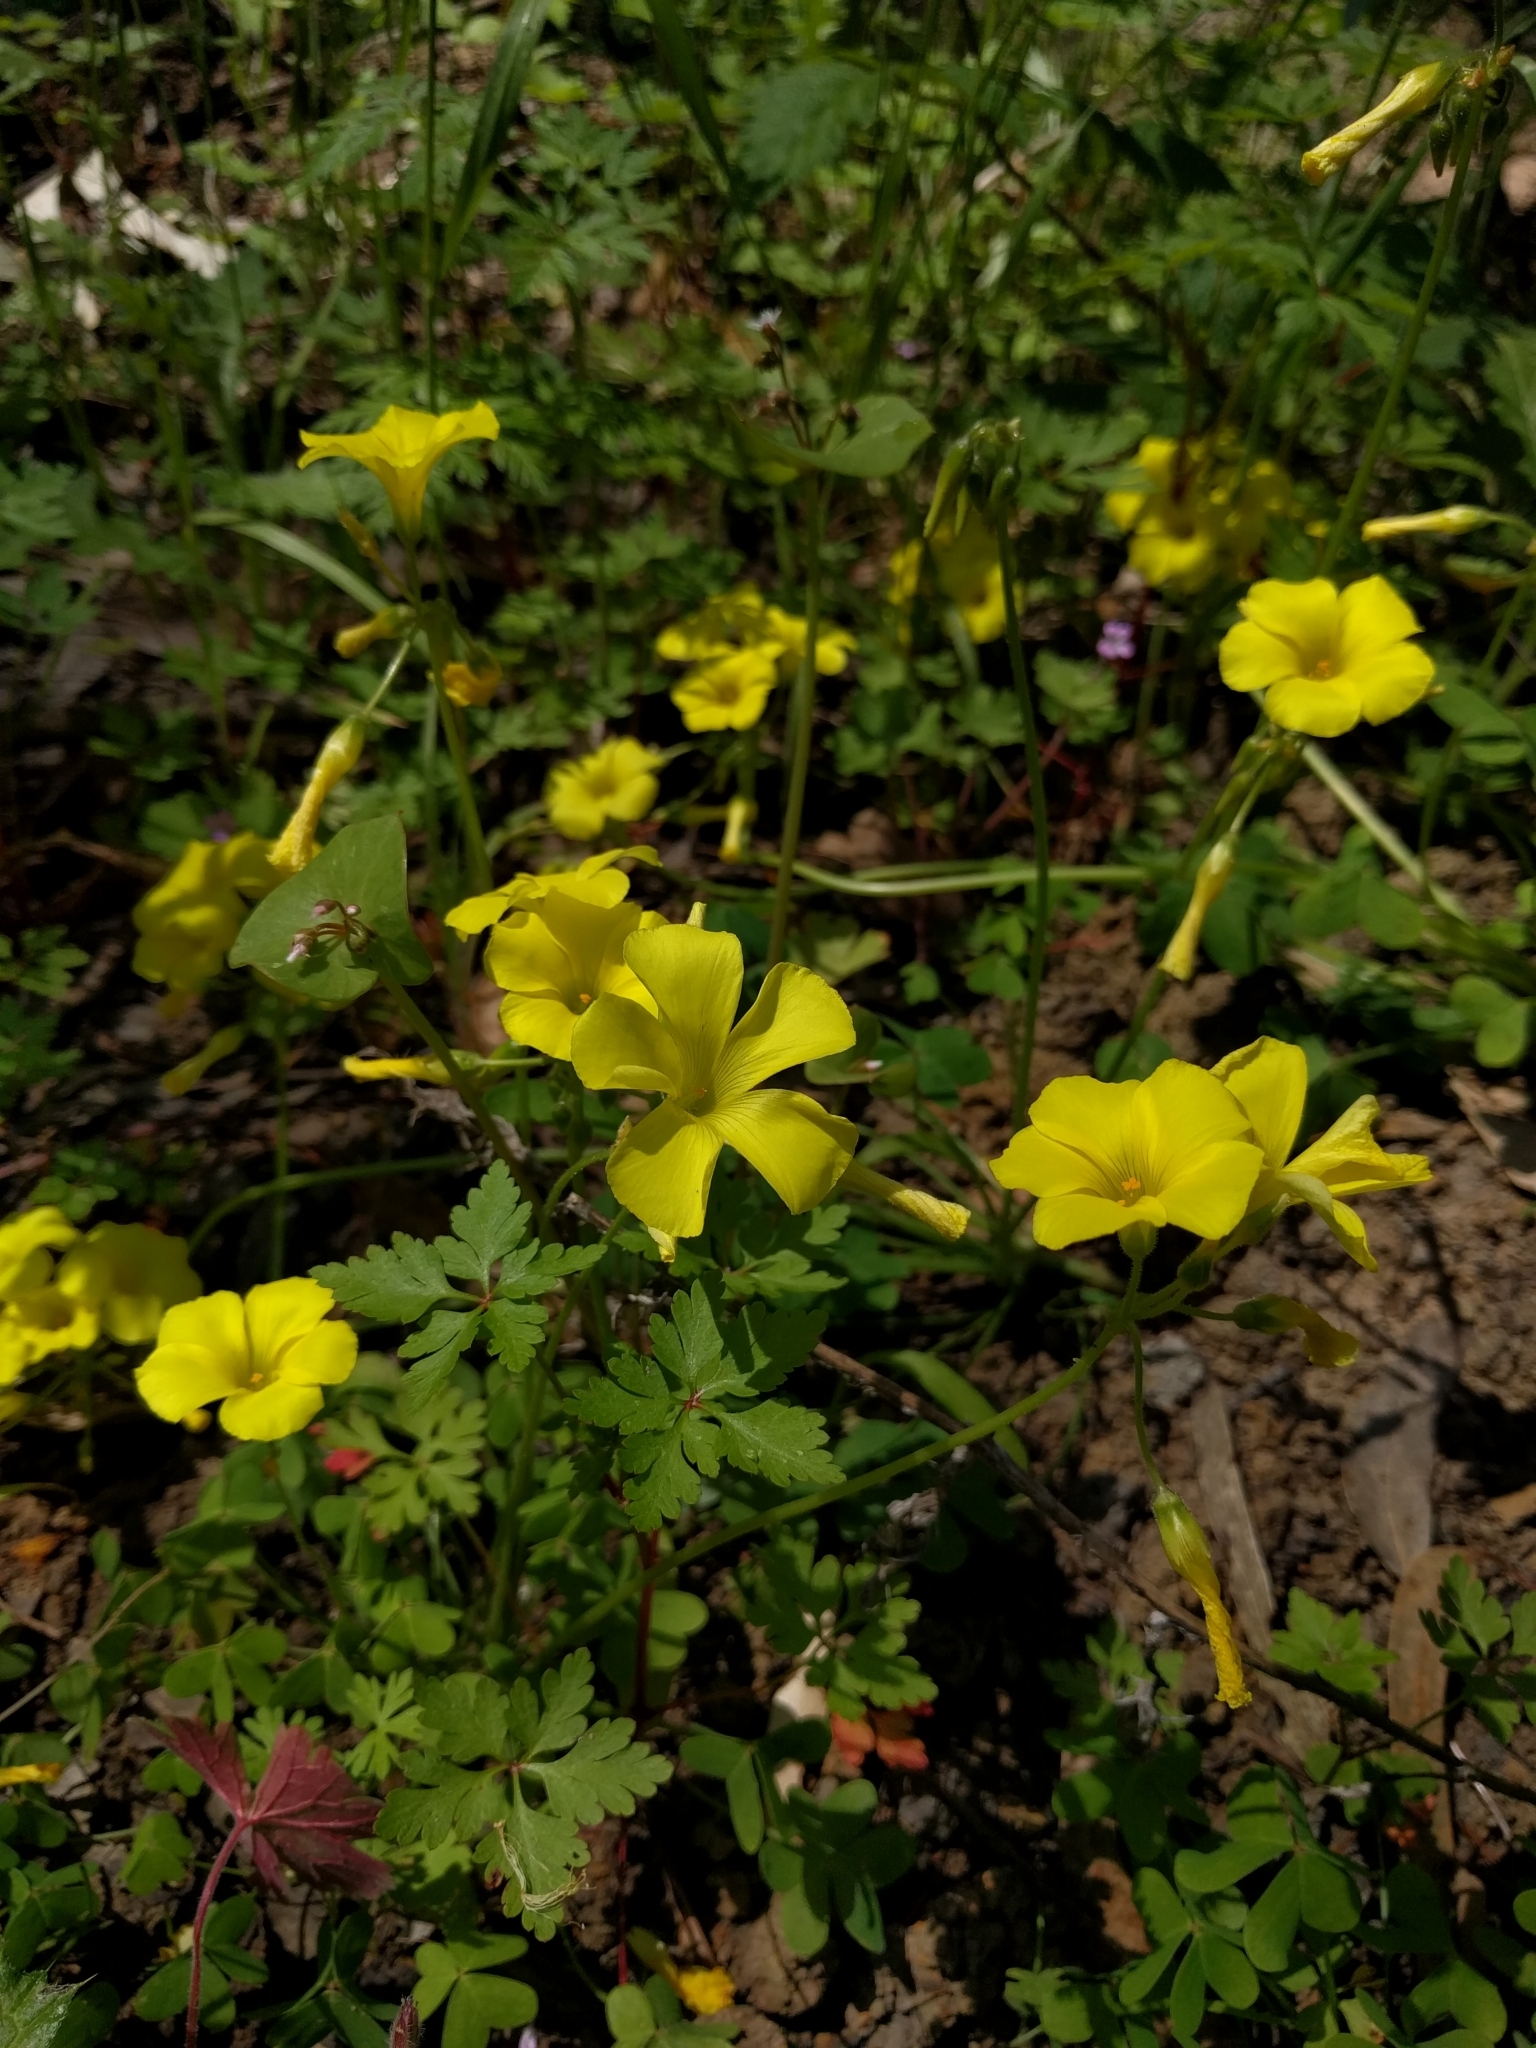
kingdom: Plantae
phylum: Tracheophyta
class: Magnoliopsida
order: Oxalidales
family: Oxalidaceae
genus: Oxalis
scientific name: Oxalis pes-caprae
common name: Bermuda-buttercup
